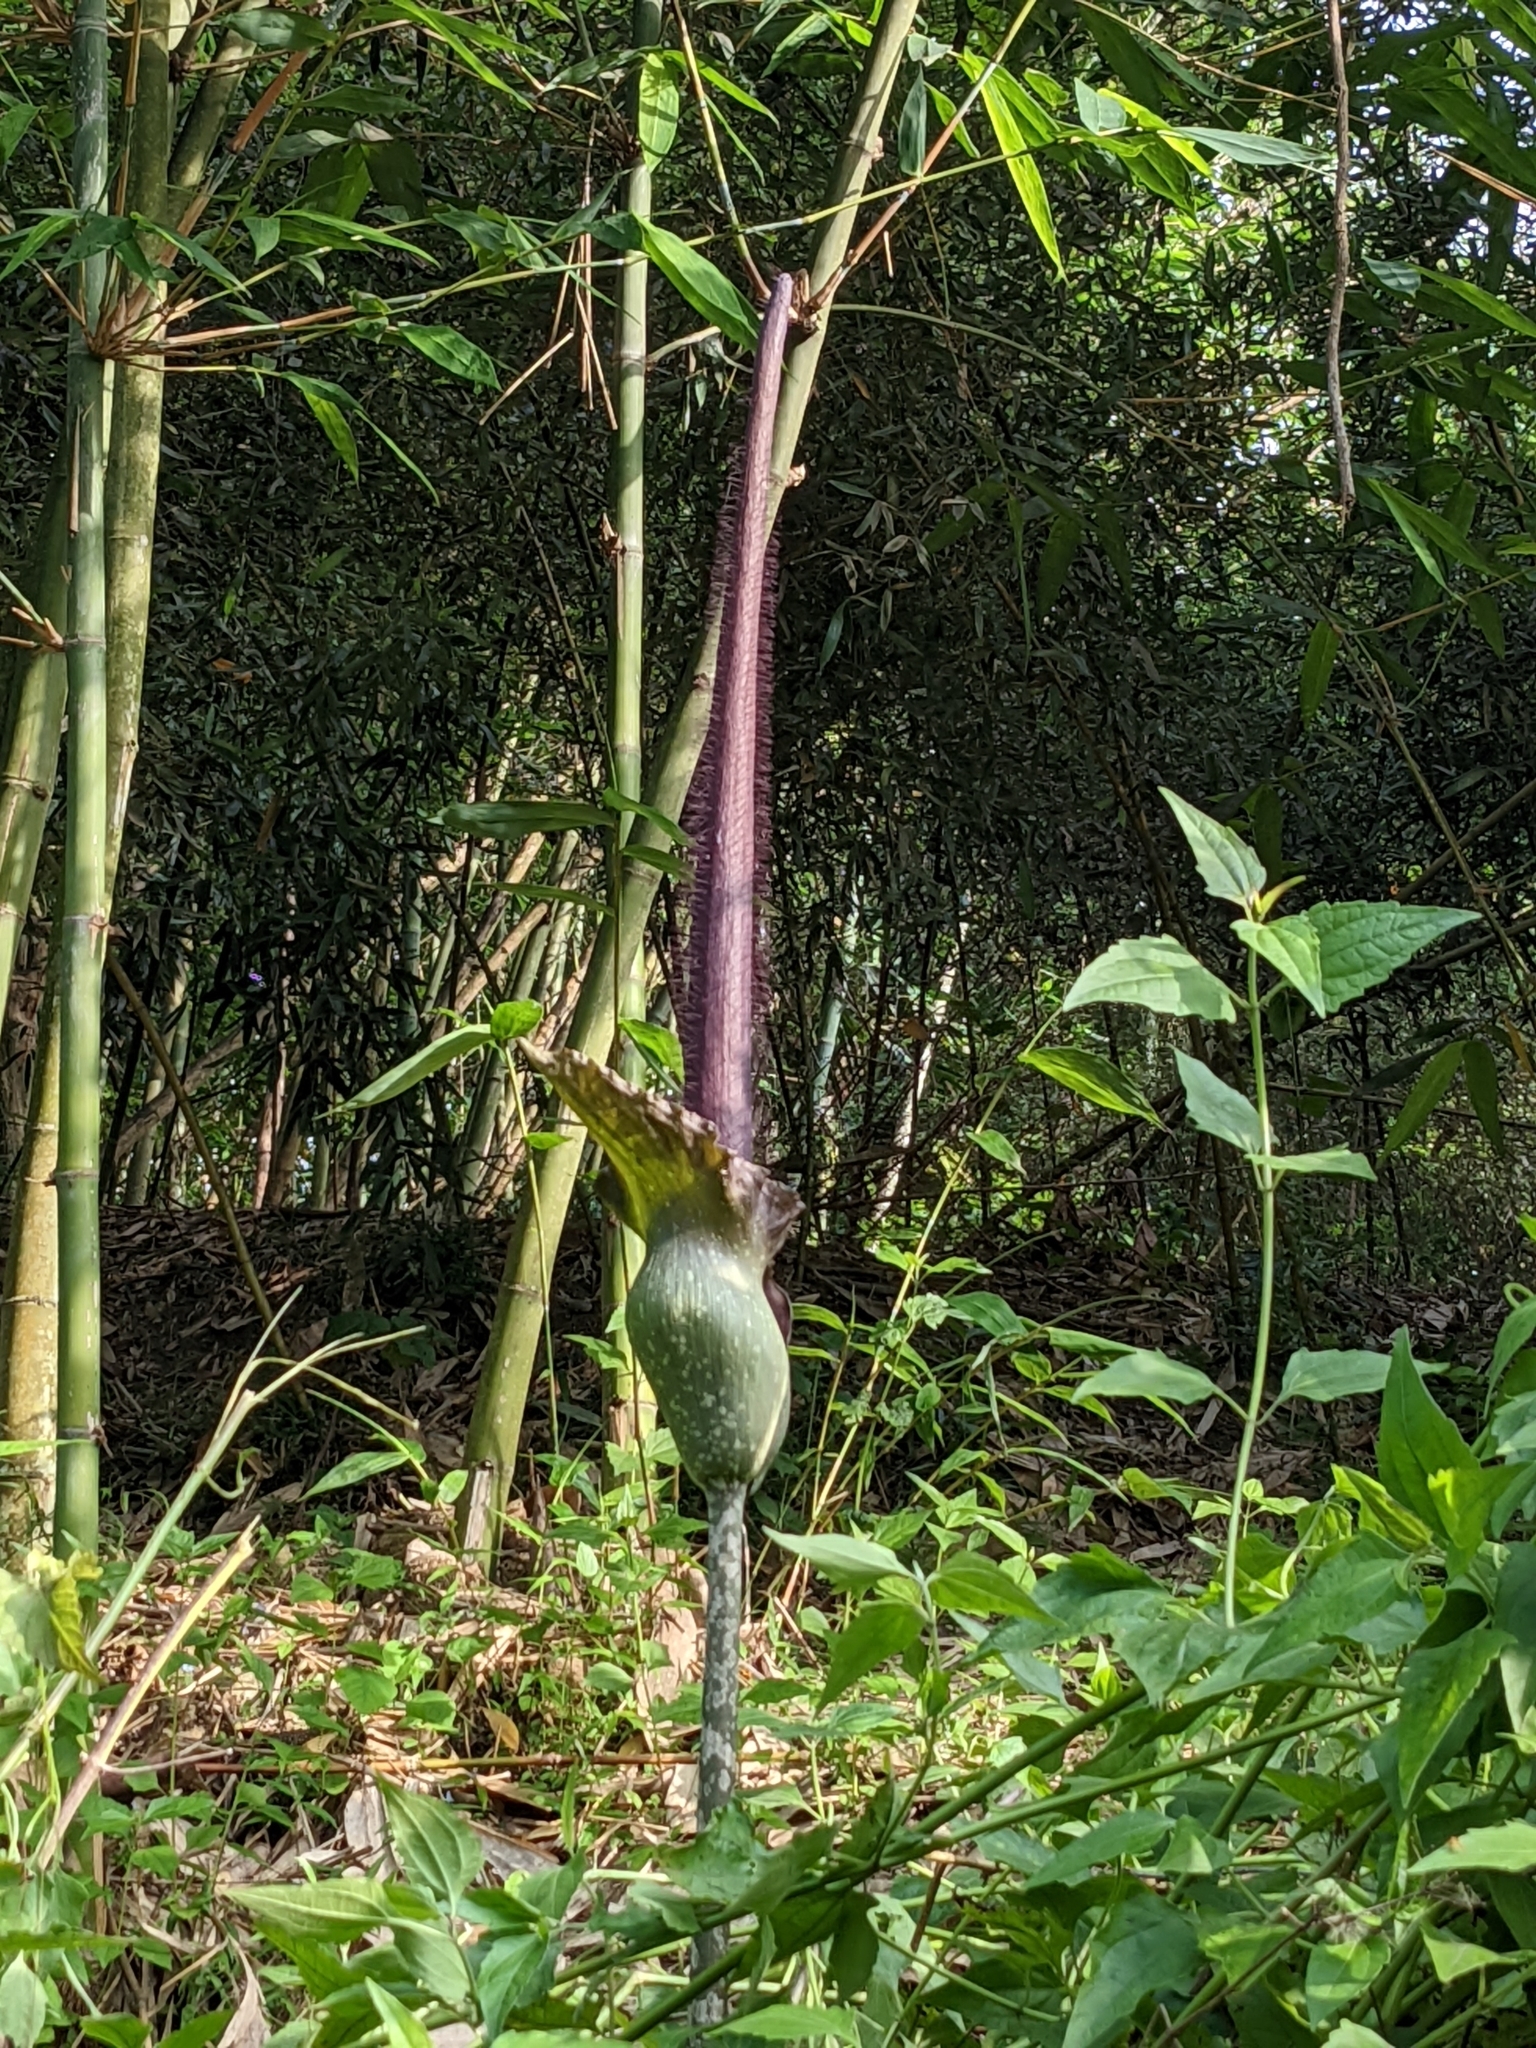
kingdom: Plantae
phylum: Tracheophyta
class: Liliopsida
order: Alismatales
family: Araceae
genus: Amorphophallus
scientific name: Amorphophallus hirtus
